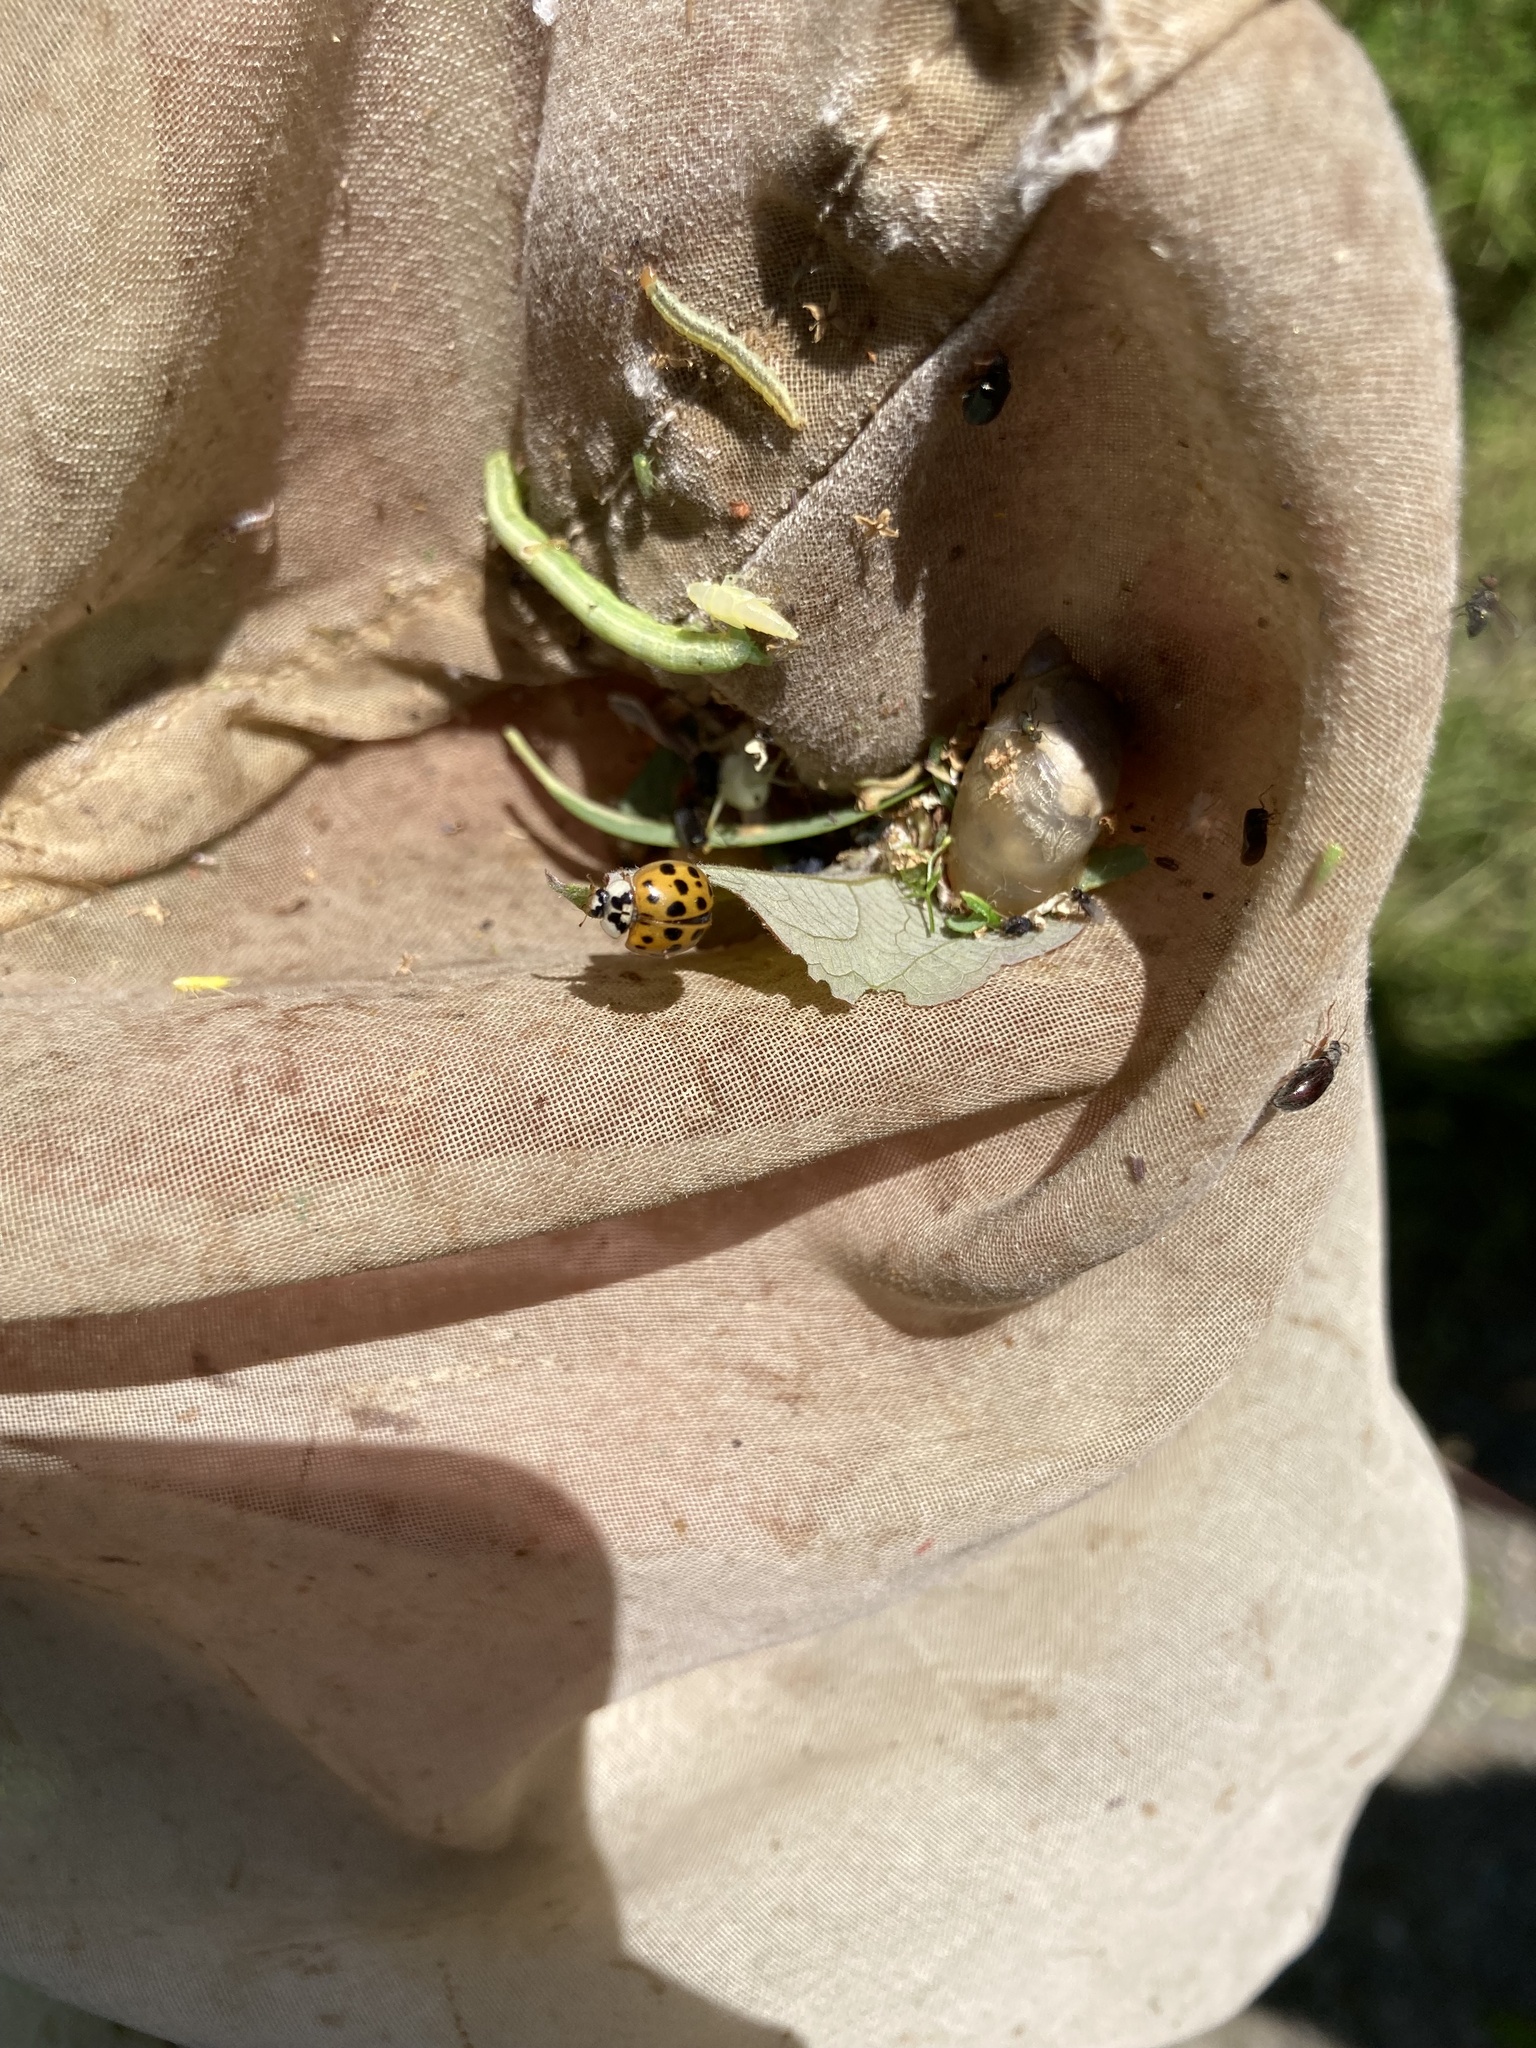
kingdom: Animalia
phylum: Arthropoda
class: Insecta
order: Coleoptera
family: Coccinellidae
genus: Harmonia
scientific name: Harmonia axyridis
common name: Harlequin ladybird
